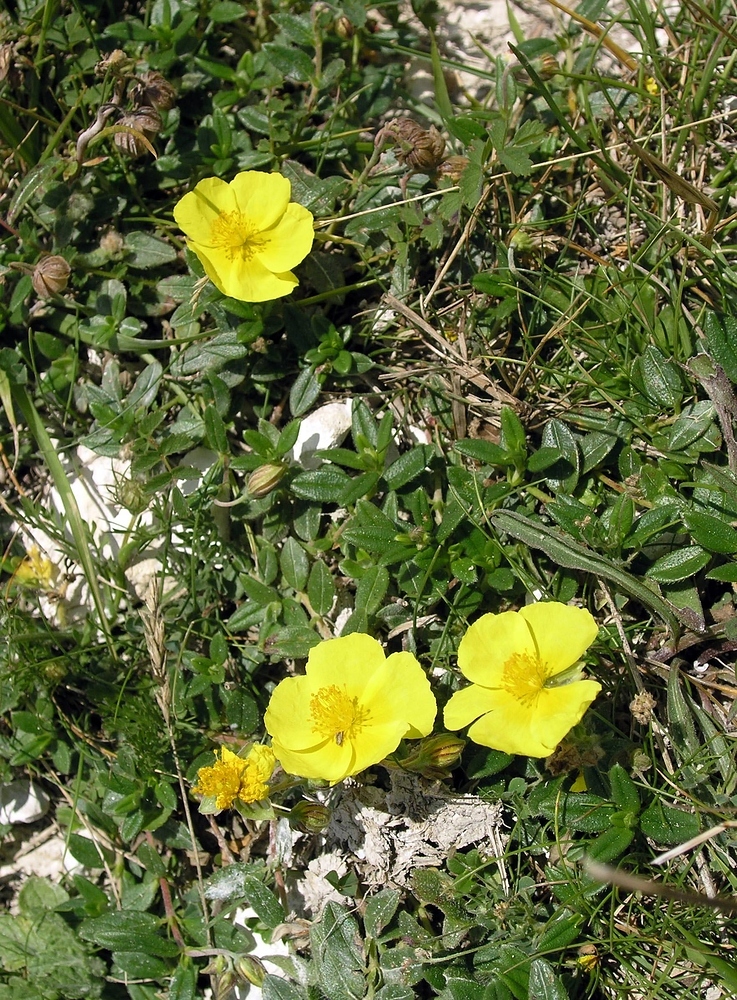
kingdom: Plantae
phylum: Tracheophyta
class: Magnoliopsida
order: Malvales
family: Cistaceae
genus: Helianthemum
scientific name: Helianthemum nummularium
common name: Common rock-rose
